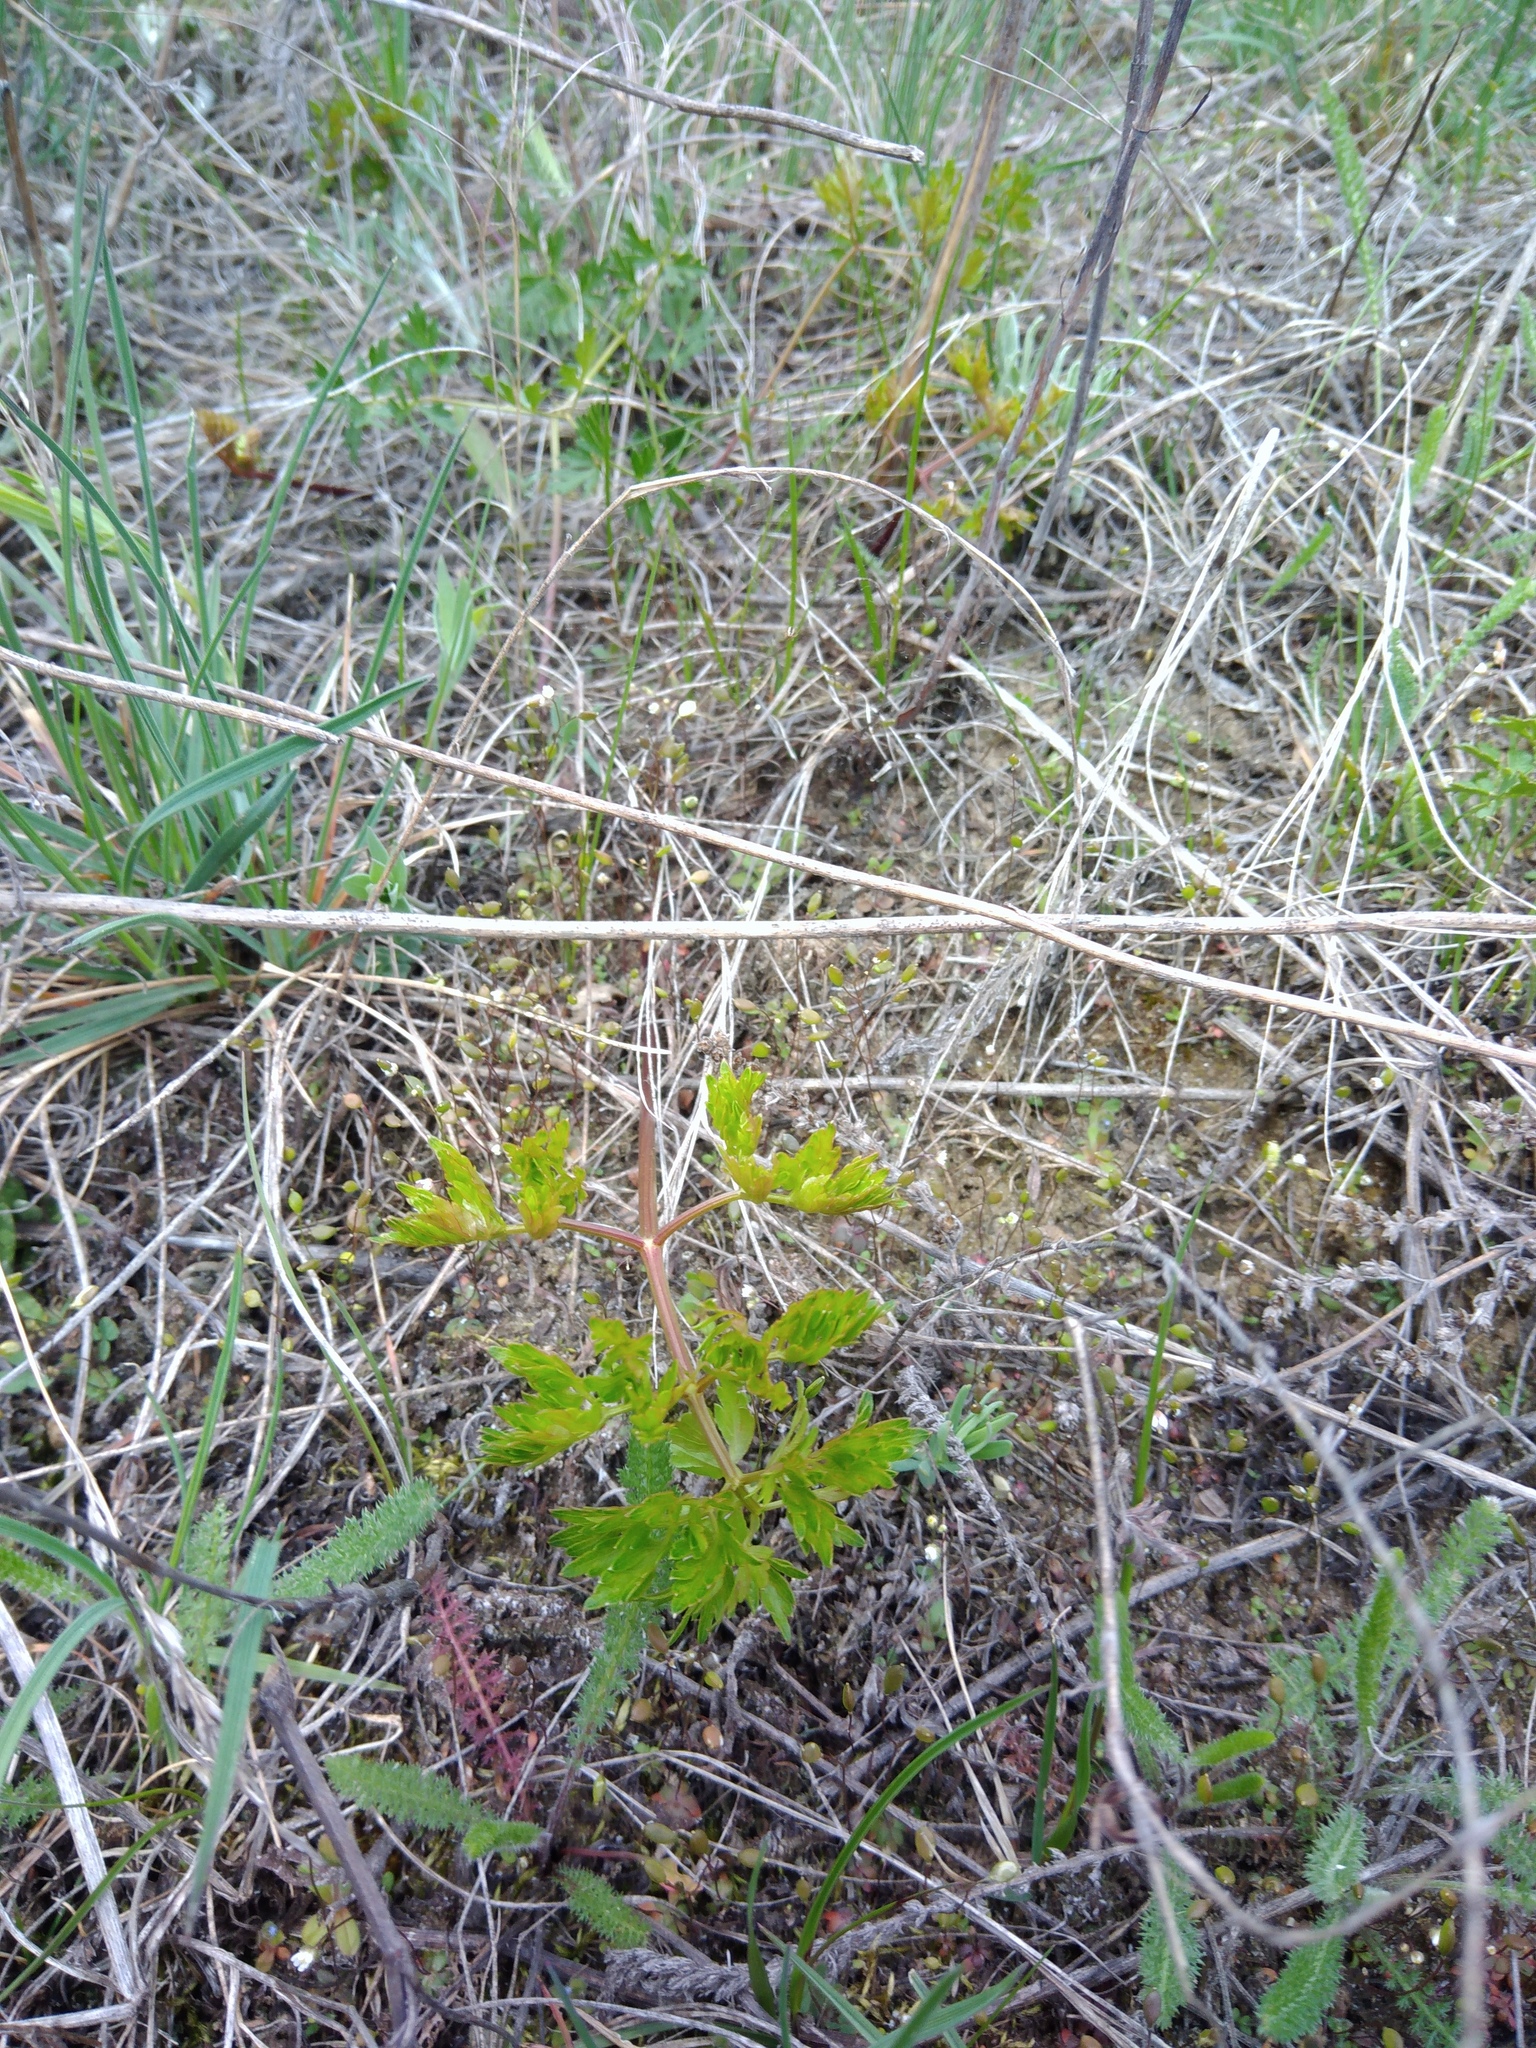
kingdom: Plantae
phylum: Tracheophyta
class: Magnoliopsida
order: Apiales
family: Apiaceae
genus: Oreoselinum
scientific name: Oreoselinum nigrum
